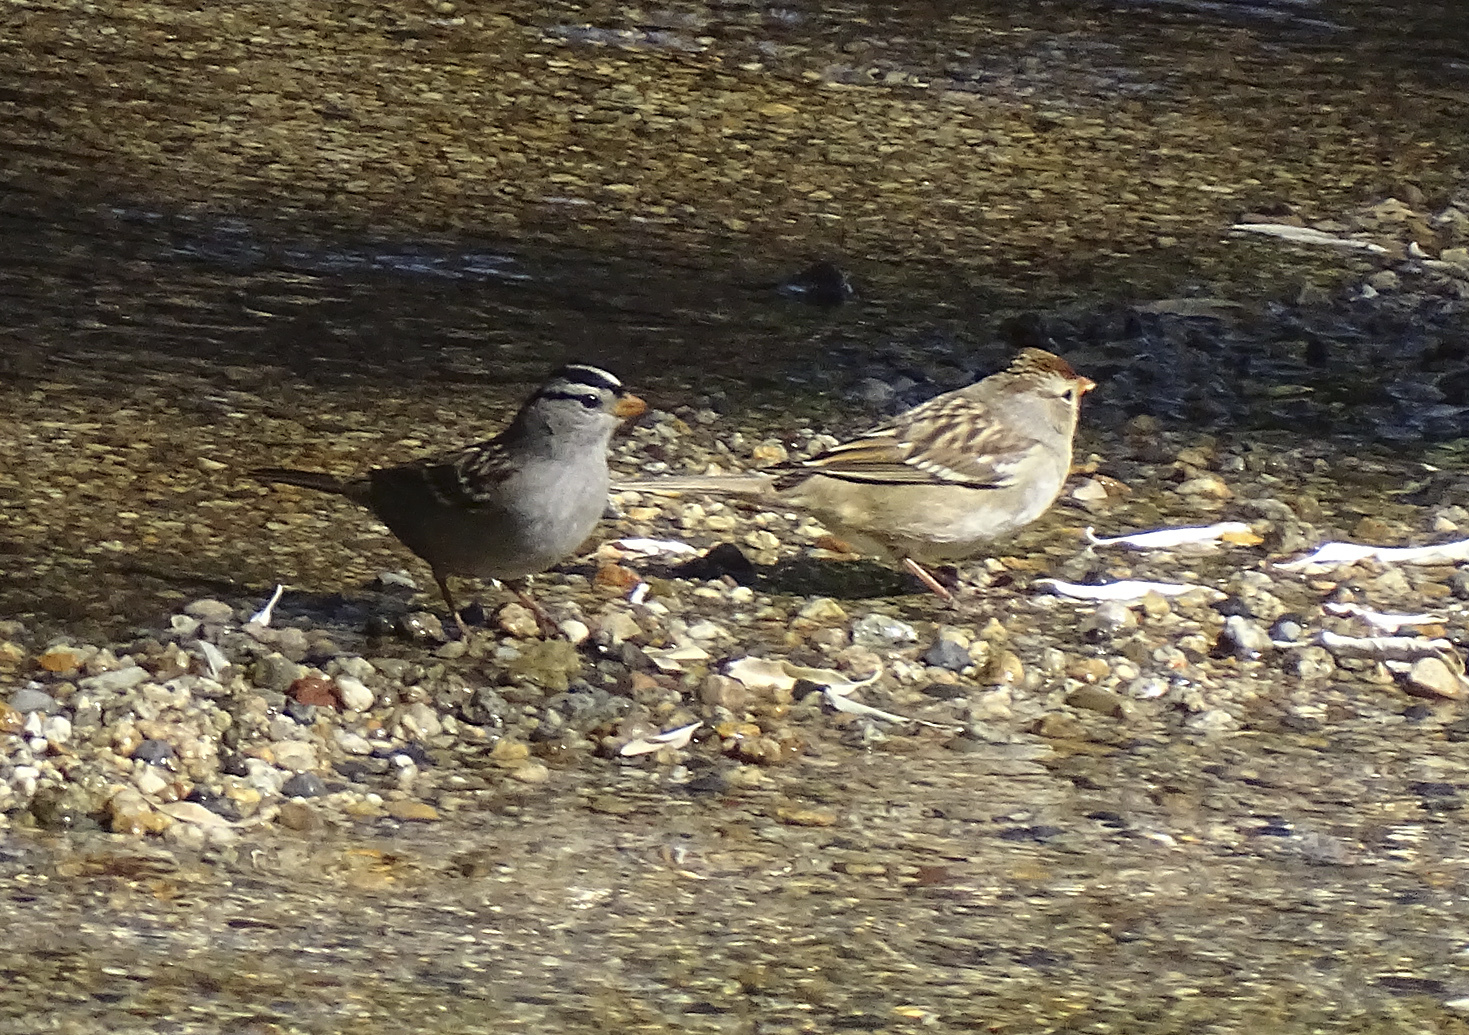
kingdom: Animalia
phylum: Chordata
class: Aves
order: Passeriformes
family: Passerellidae
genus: Zonotrichia
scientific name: Zonotrichia leucophrys
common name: White-crowned sparrow
